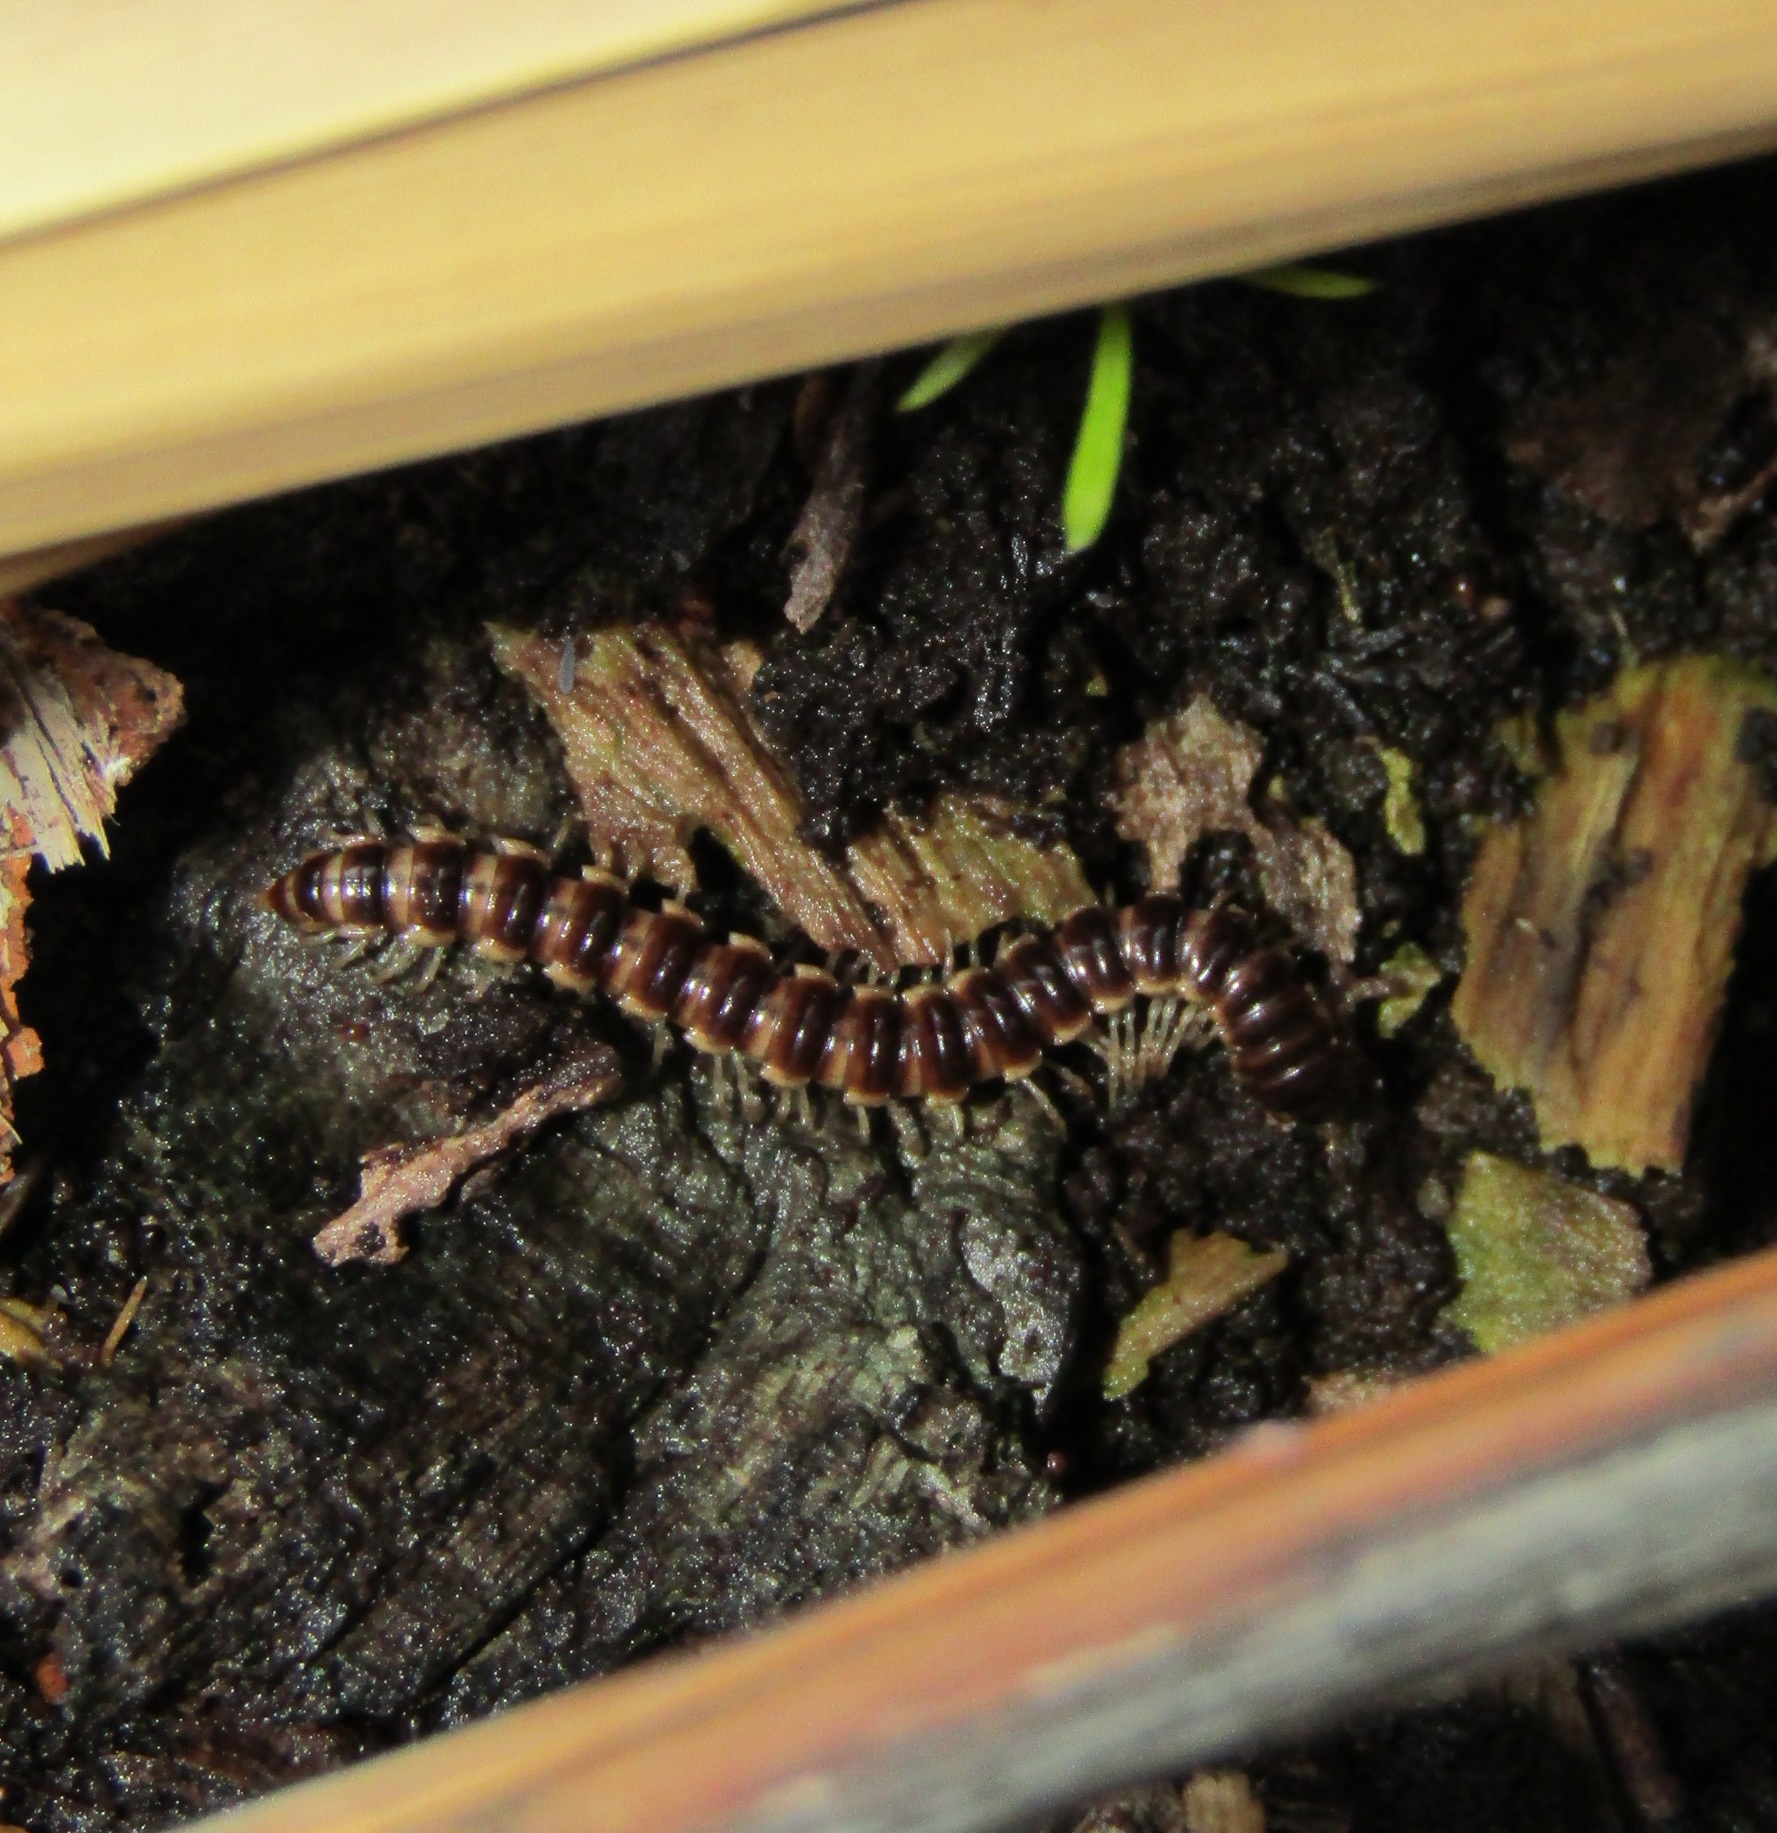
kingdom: Animalia
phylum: Arthropoda
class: Diplopoda
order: Polydesmida
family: Paradoxosomatidae
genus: Oxidus
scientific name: Oxidus gracilis
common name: Greenhouse millipede
